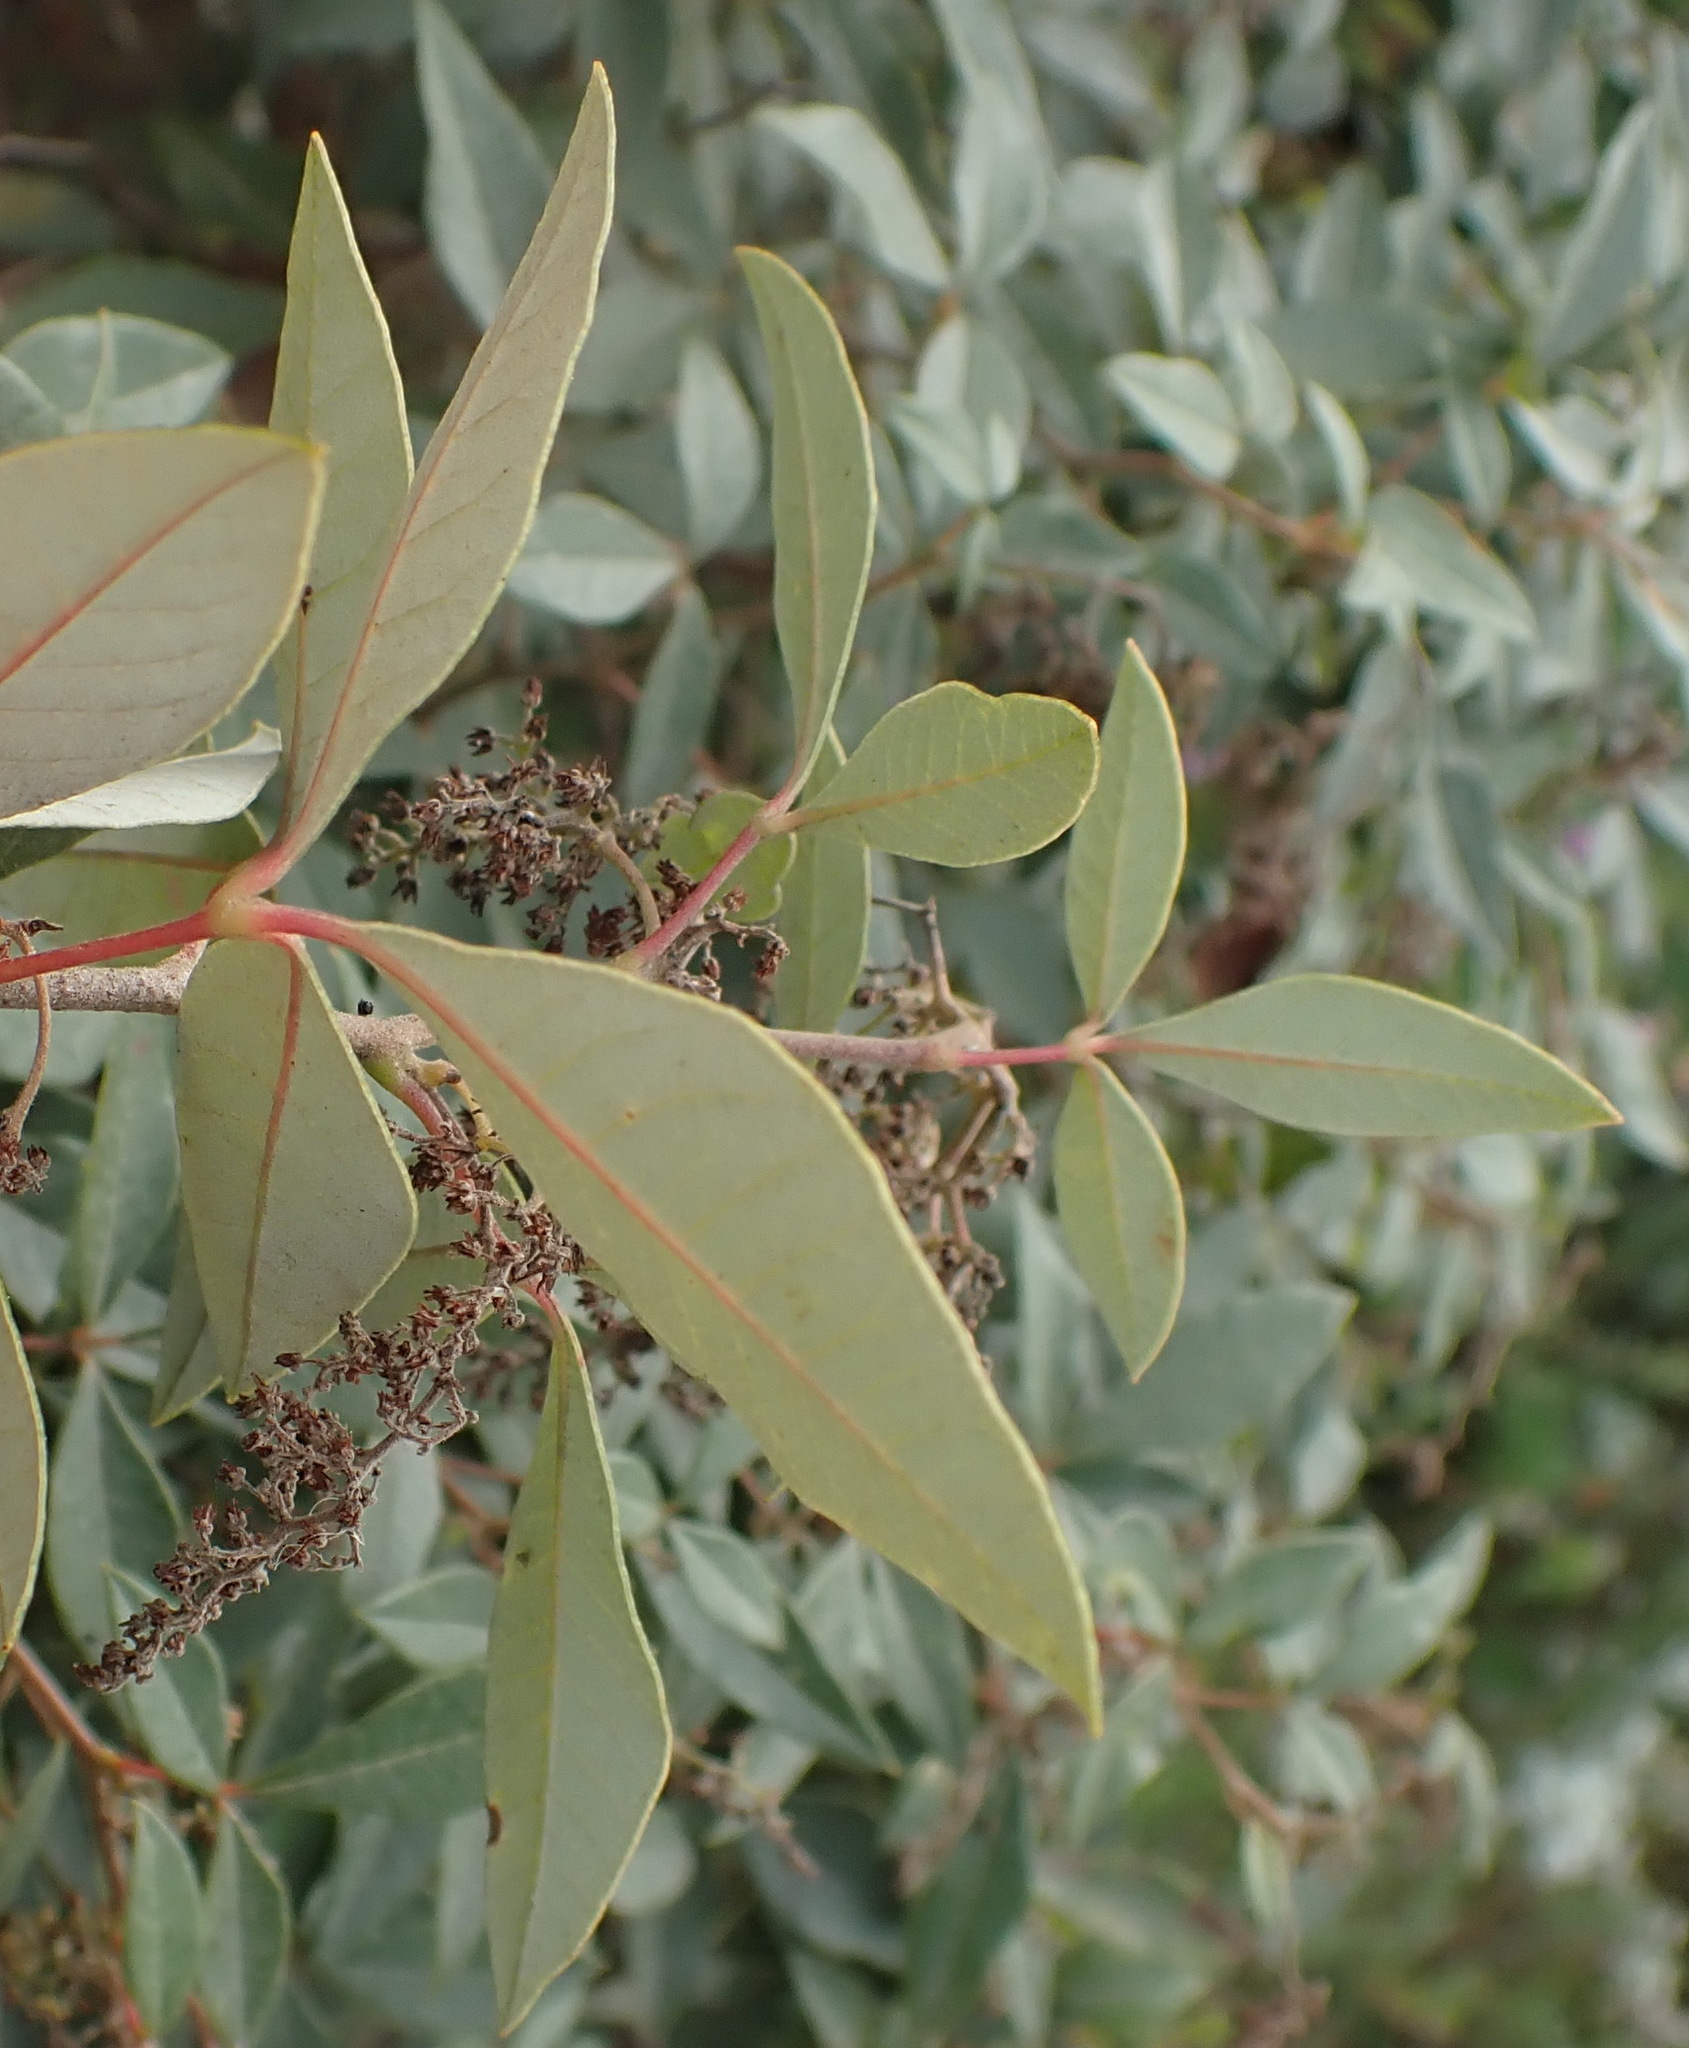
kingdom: Plantae
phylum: Tracheophyta
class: Magnoliopsida
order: Sapindales
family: Anacardiaceae
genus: Searsia
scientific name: Searsia tomentosa
